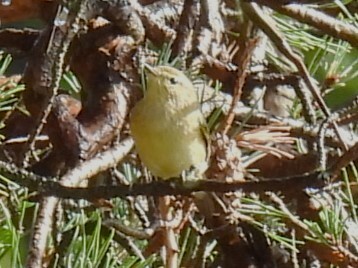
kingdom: Animalia
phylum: Chordata
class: Aves
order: Passeriformes
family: Phylloscopidae
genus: Phylloscopus
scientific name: Phylloscopus collybita
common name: Common chiffchaff
